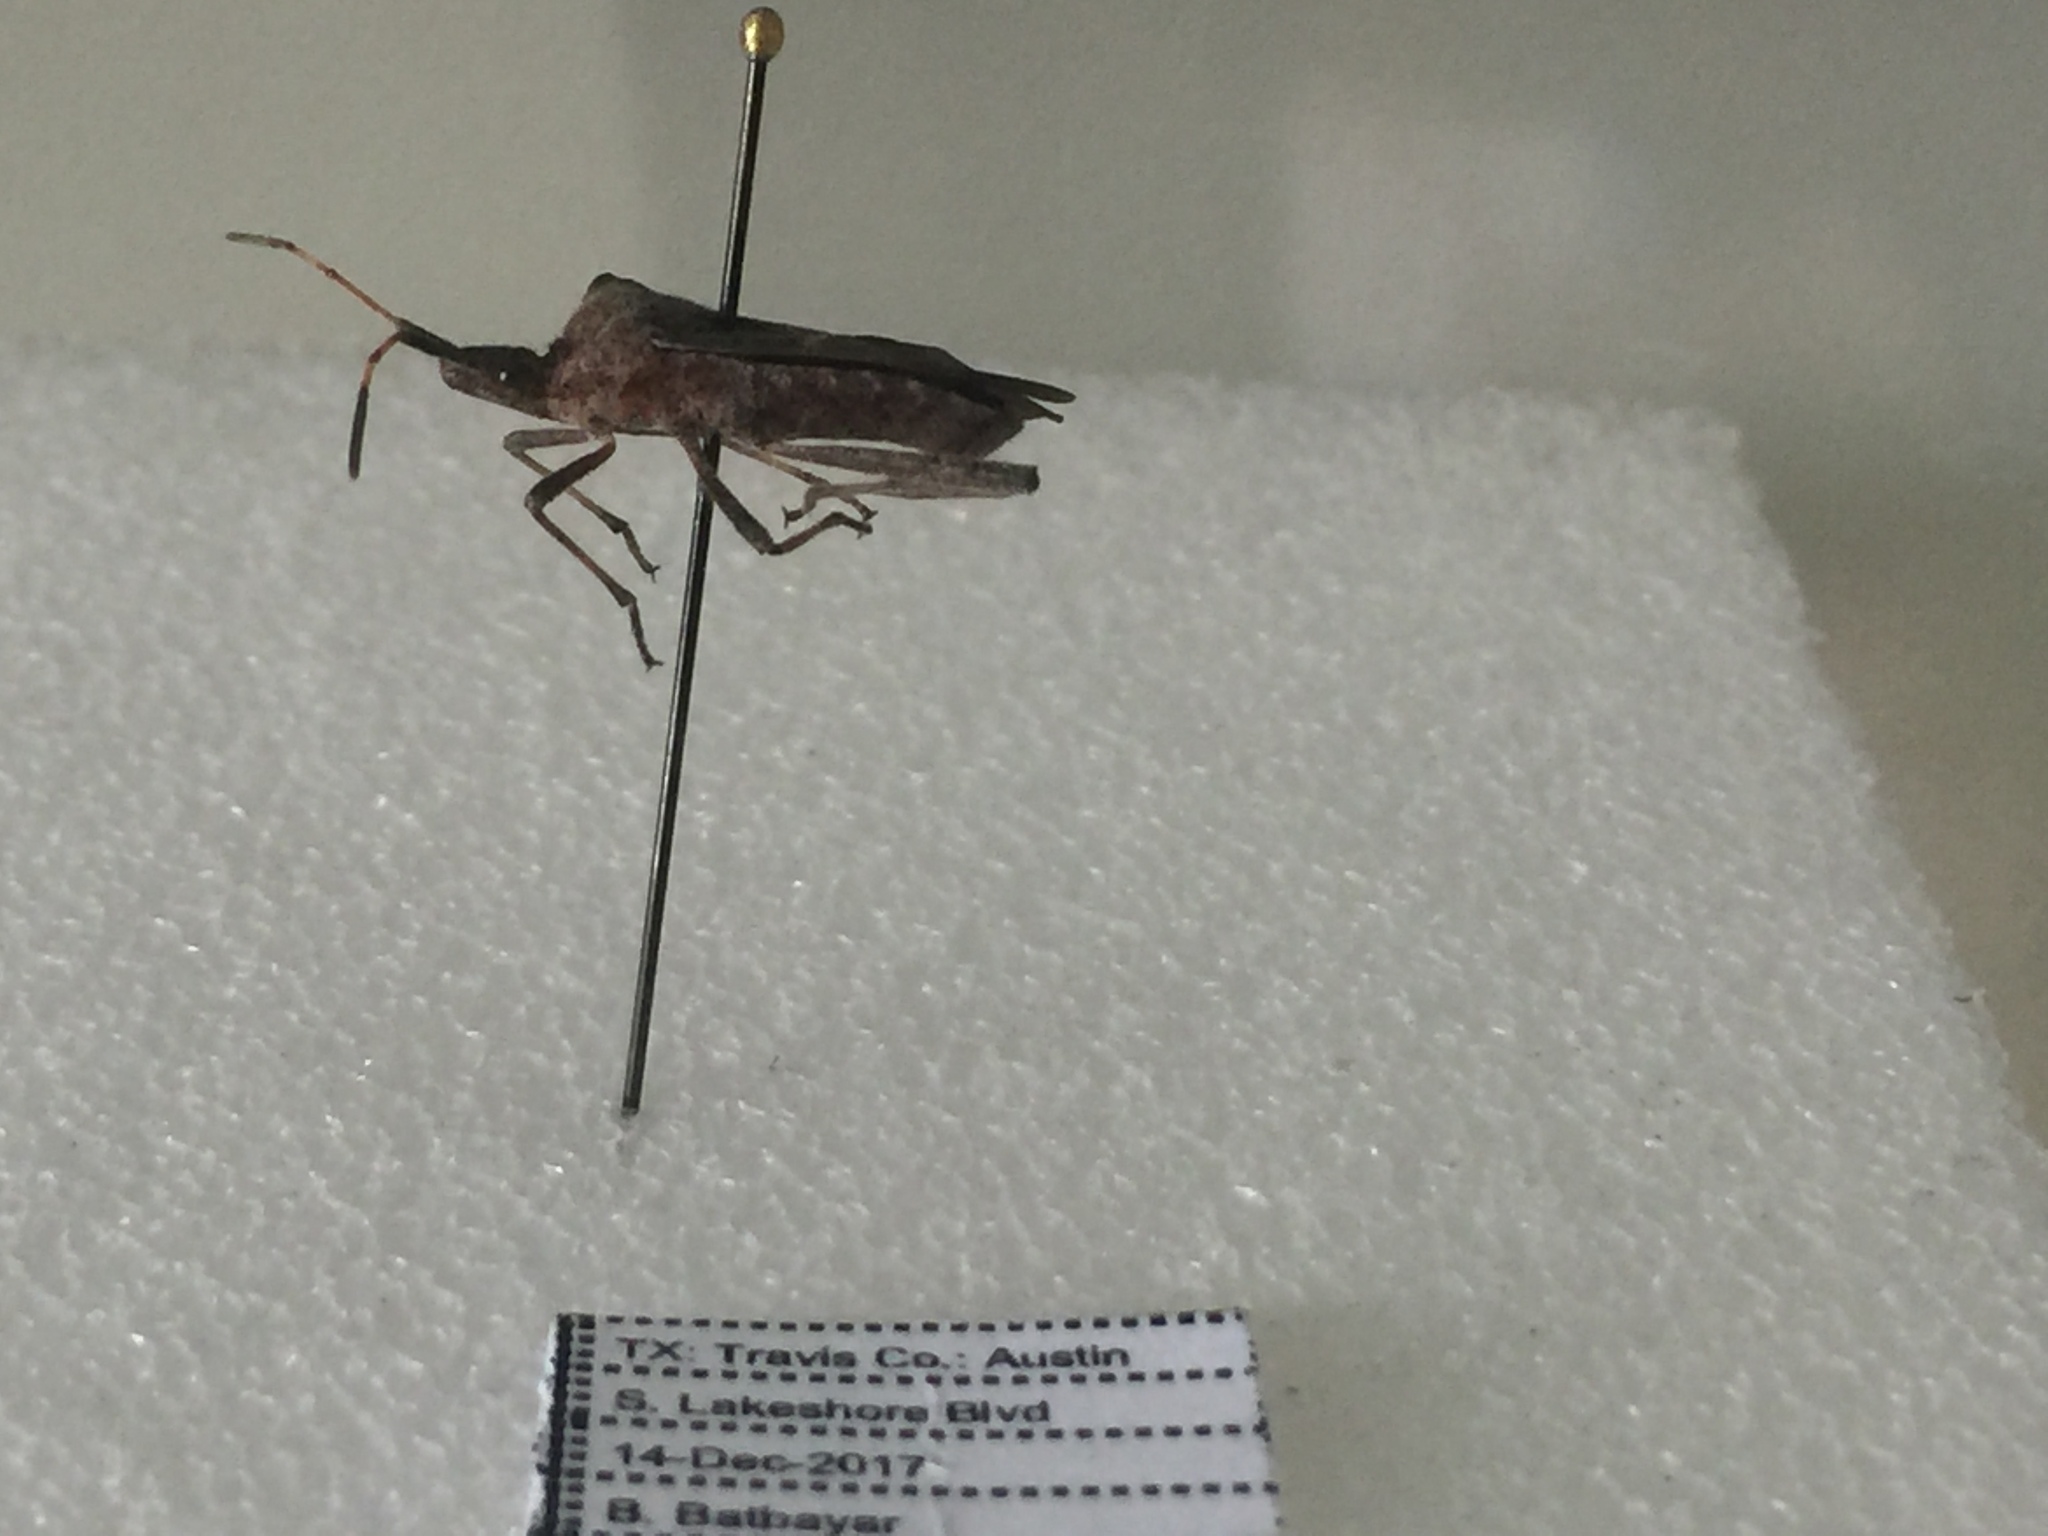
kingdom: Animalia
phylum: Arthropoda
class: Insecta
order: Hemiptera
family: Coreidae
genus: Leptoglossus
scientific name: Leptoglossus zonatus
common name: Large-legged bug
